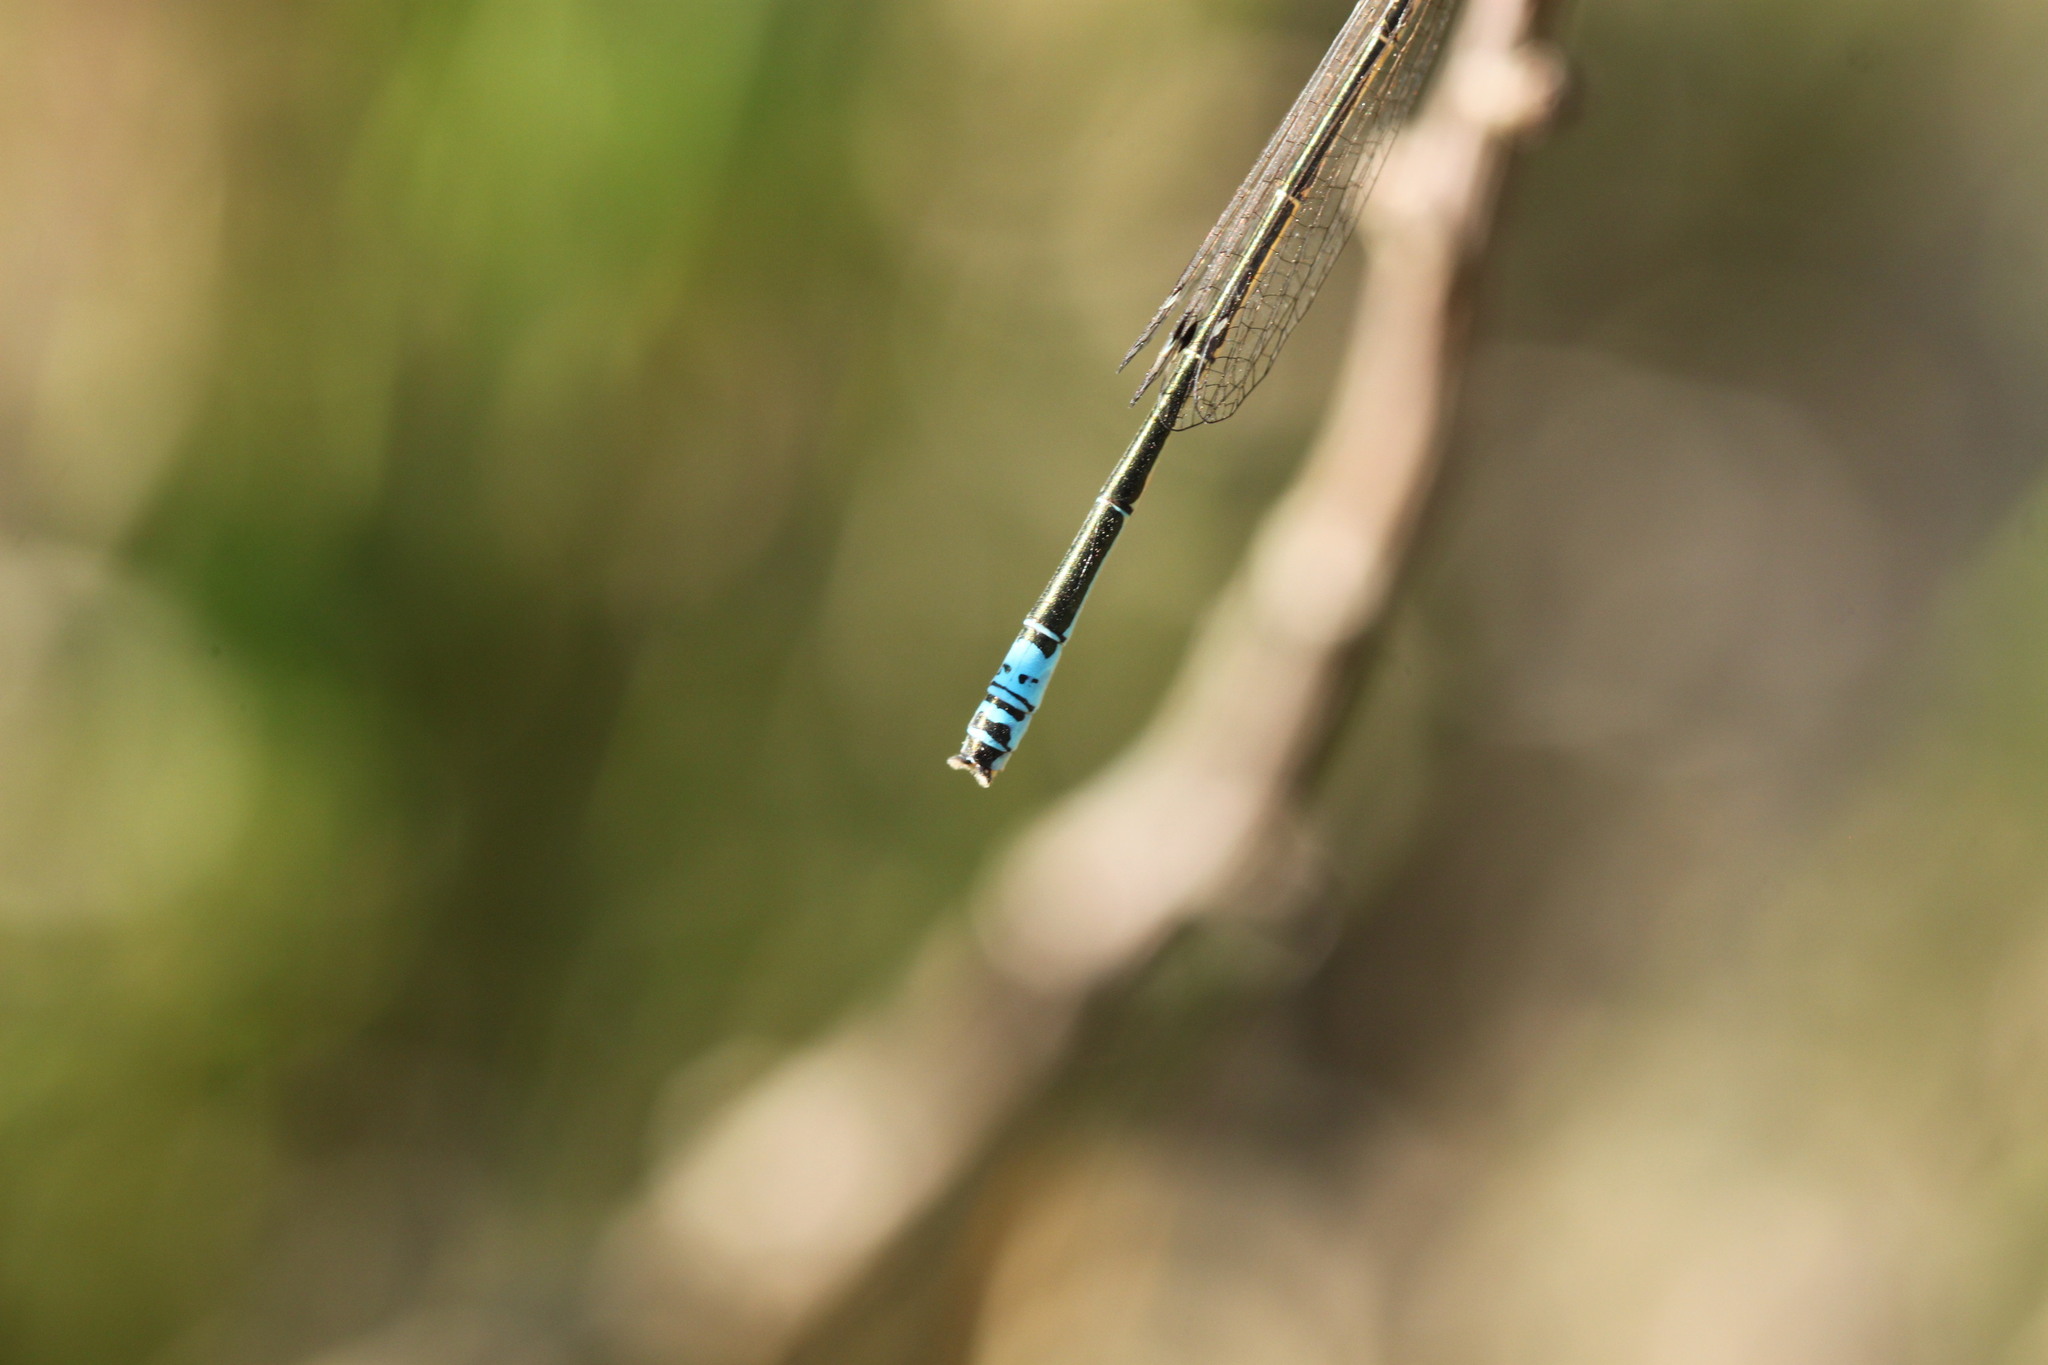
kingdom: Animalia
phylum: Arthropoda
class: Insecta
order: Odonata
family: Coenagrionidae
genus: Ischnura
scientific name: Ischnura intermedia
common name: Dumont's bluetail
